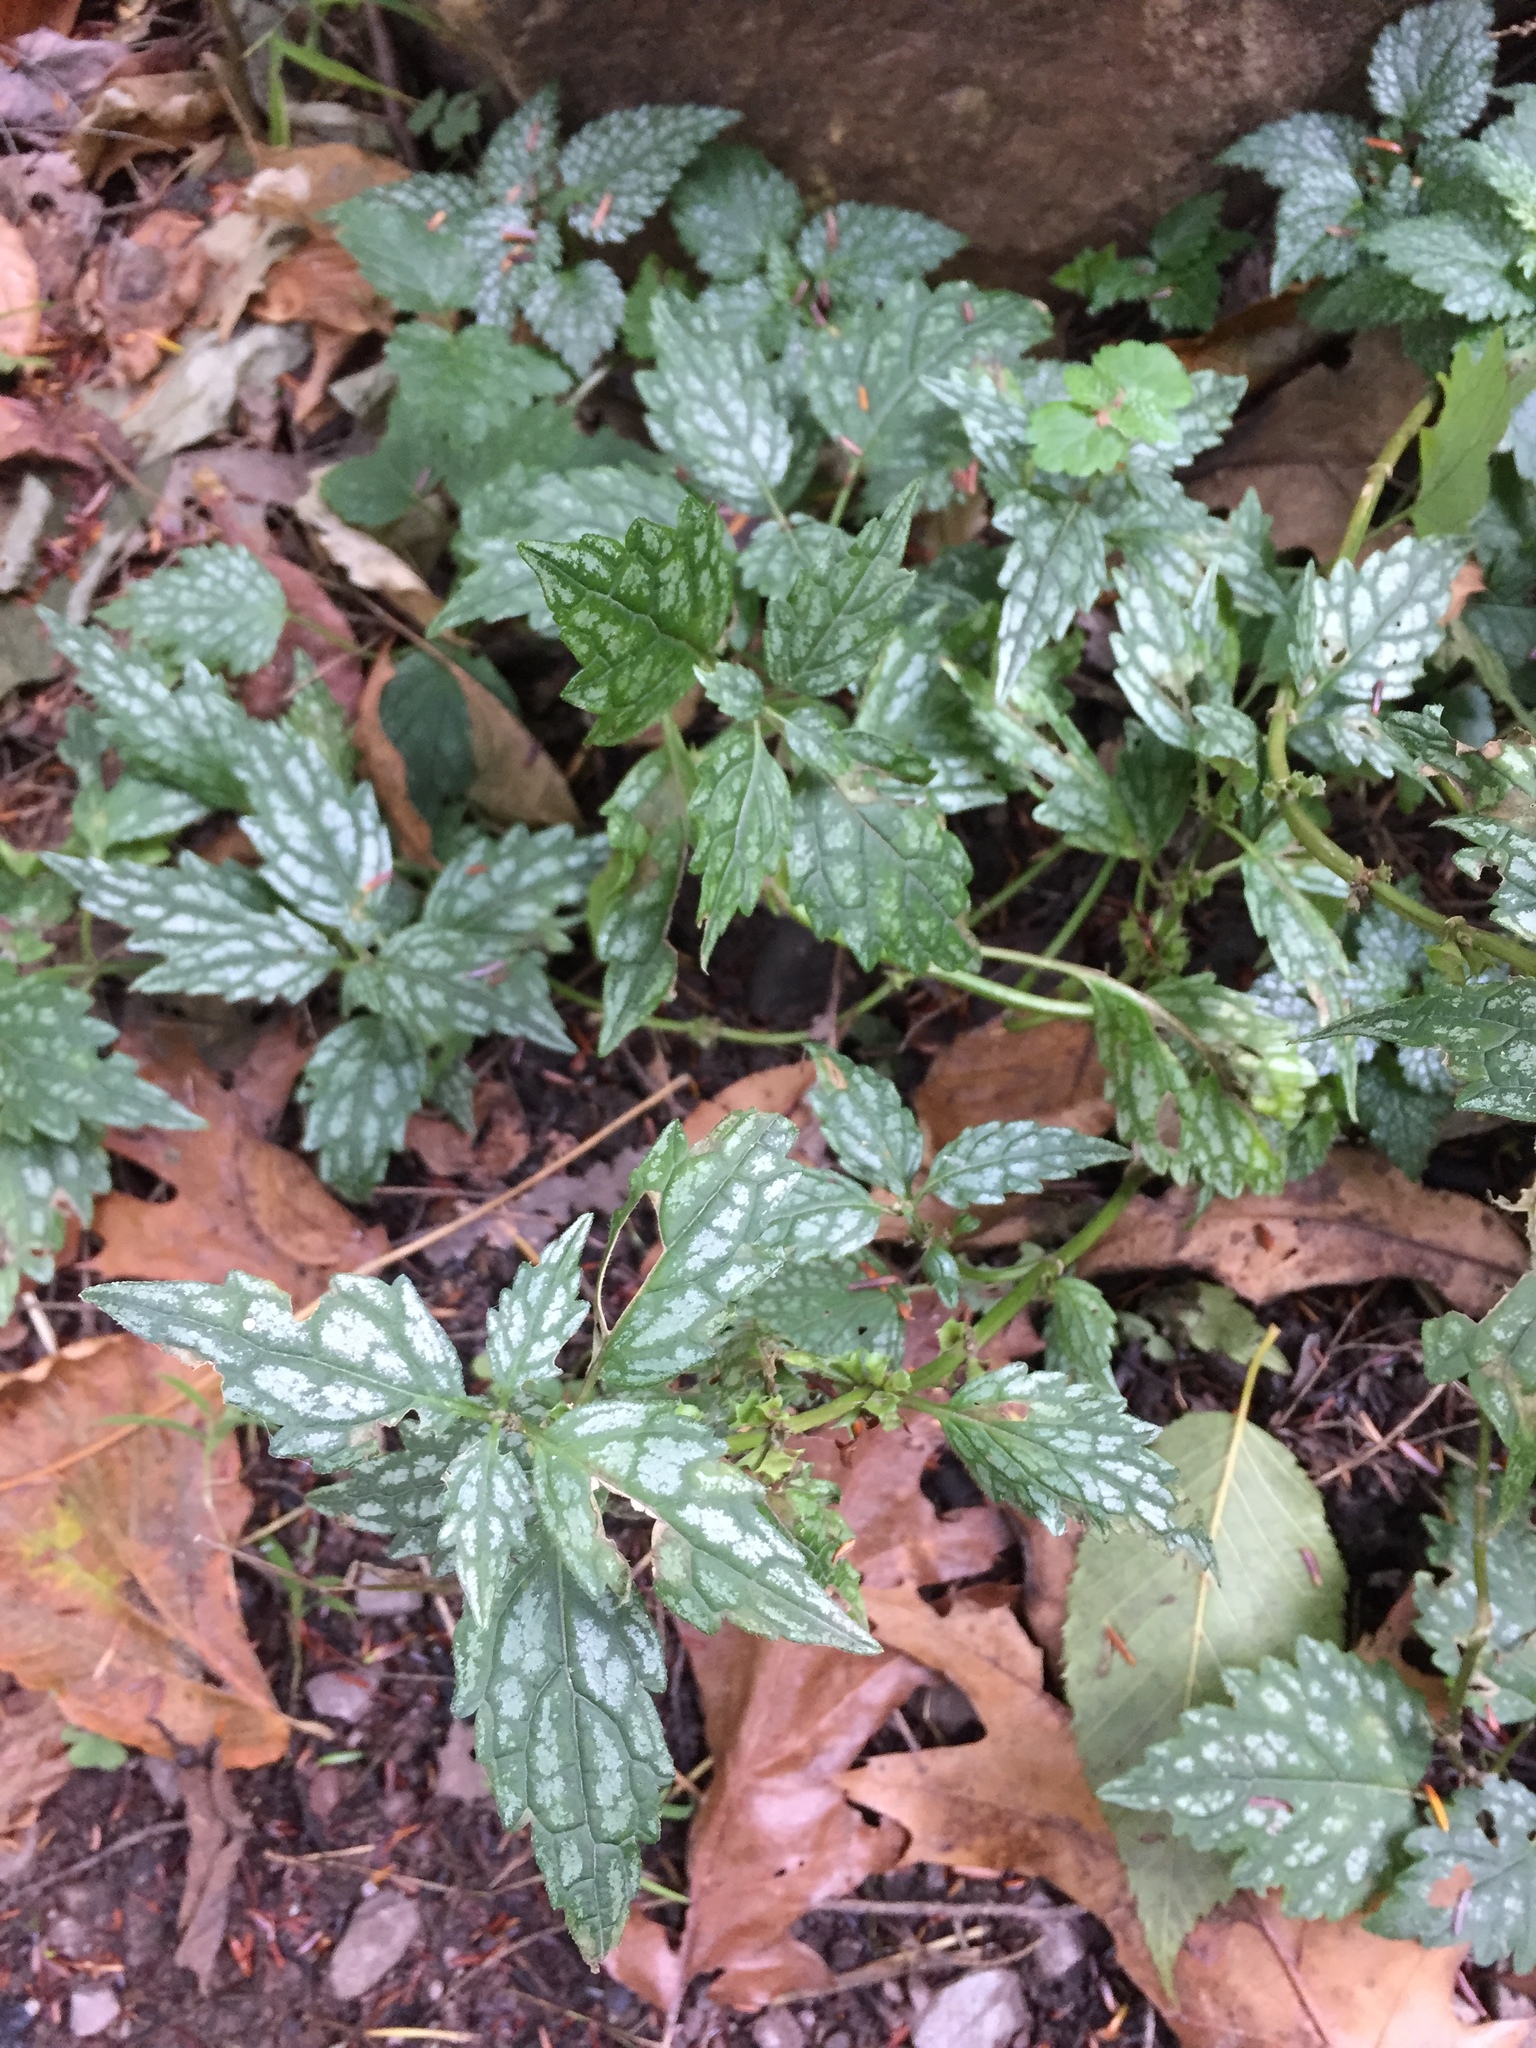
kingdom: Plantae
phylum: Tracheophyta
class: Magnoliopsida
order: Lamiales
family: Lamiaceae
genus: Lamium
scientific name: Lamium galeobdolon
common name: Yellow archangel
